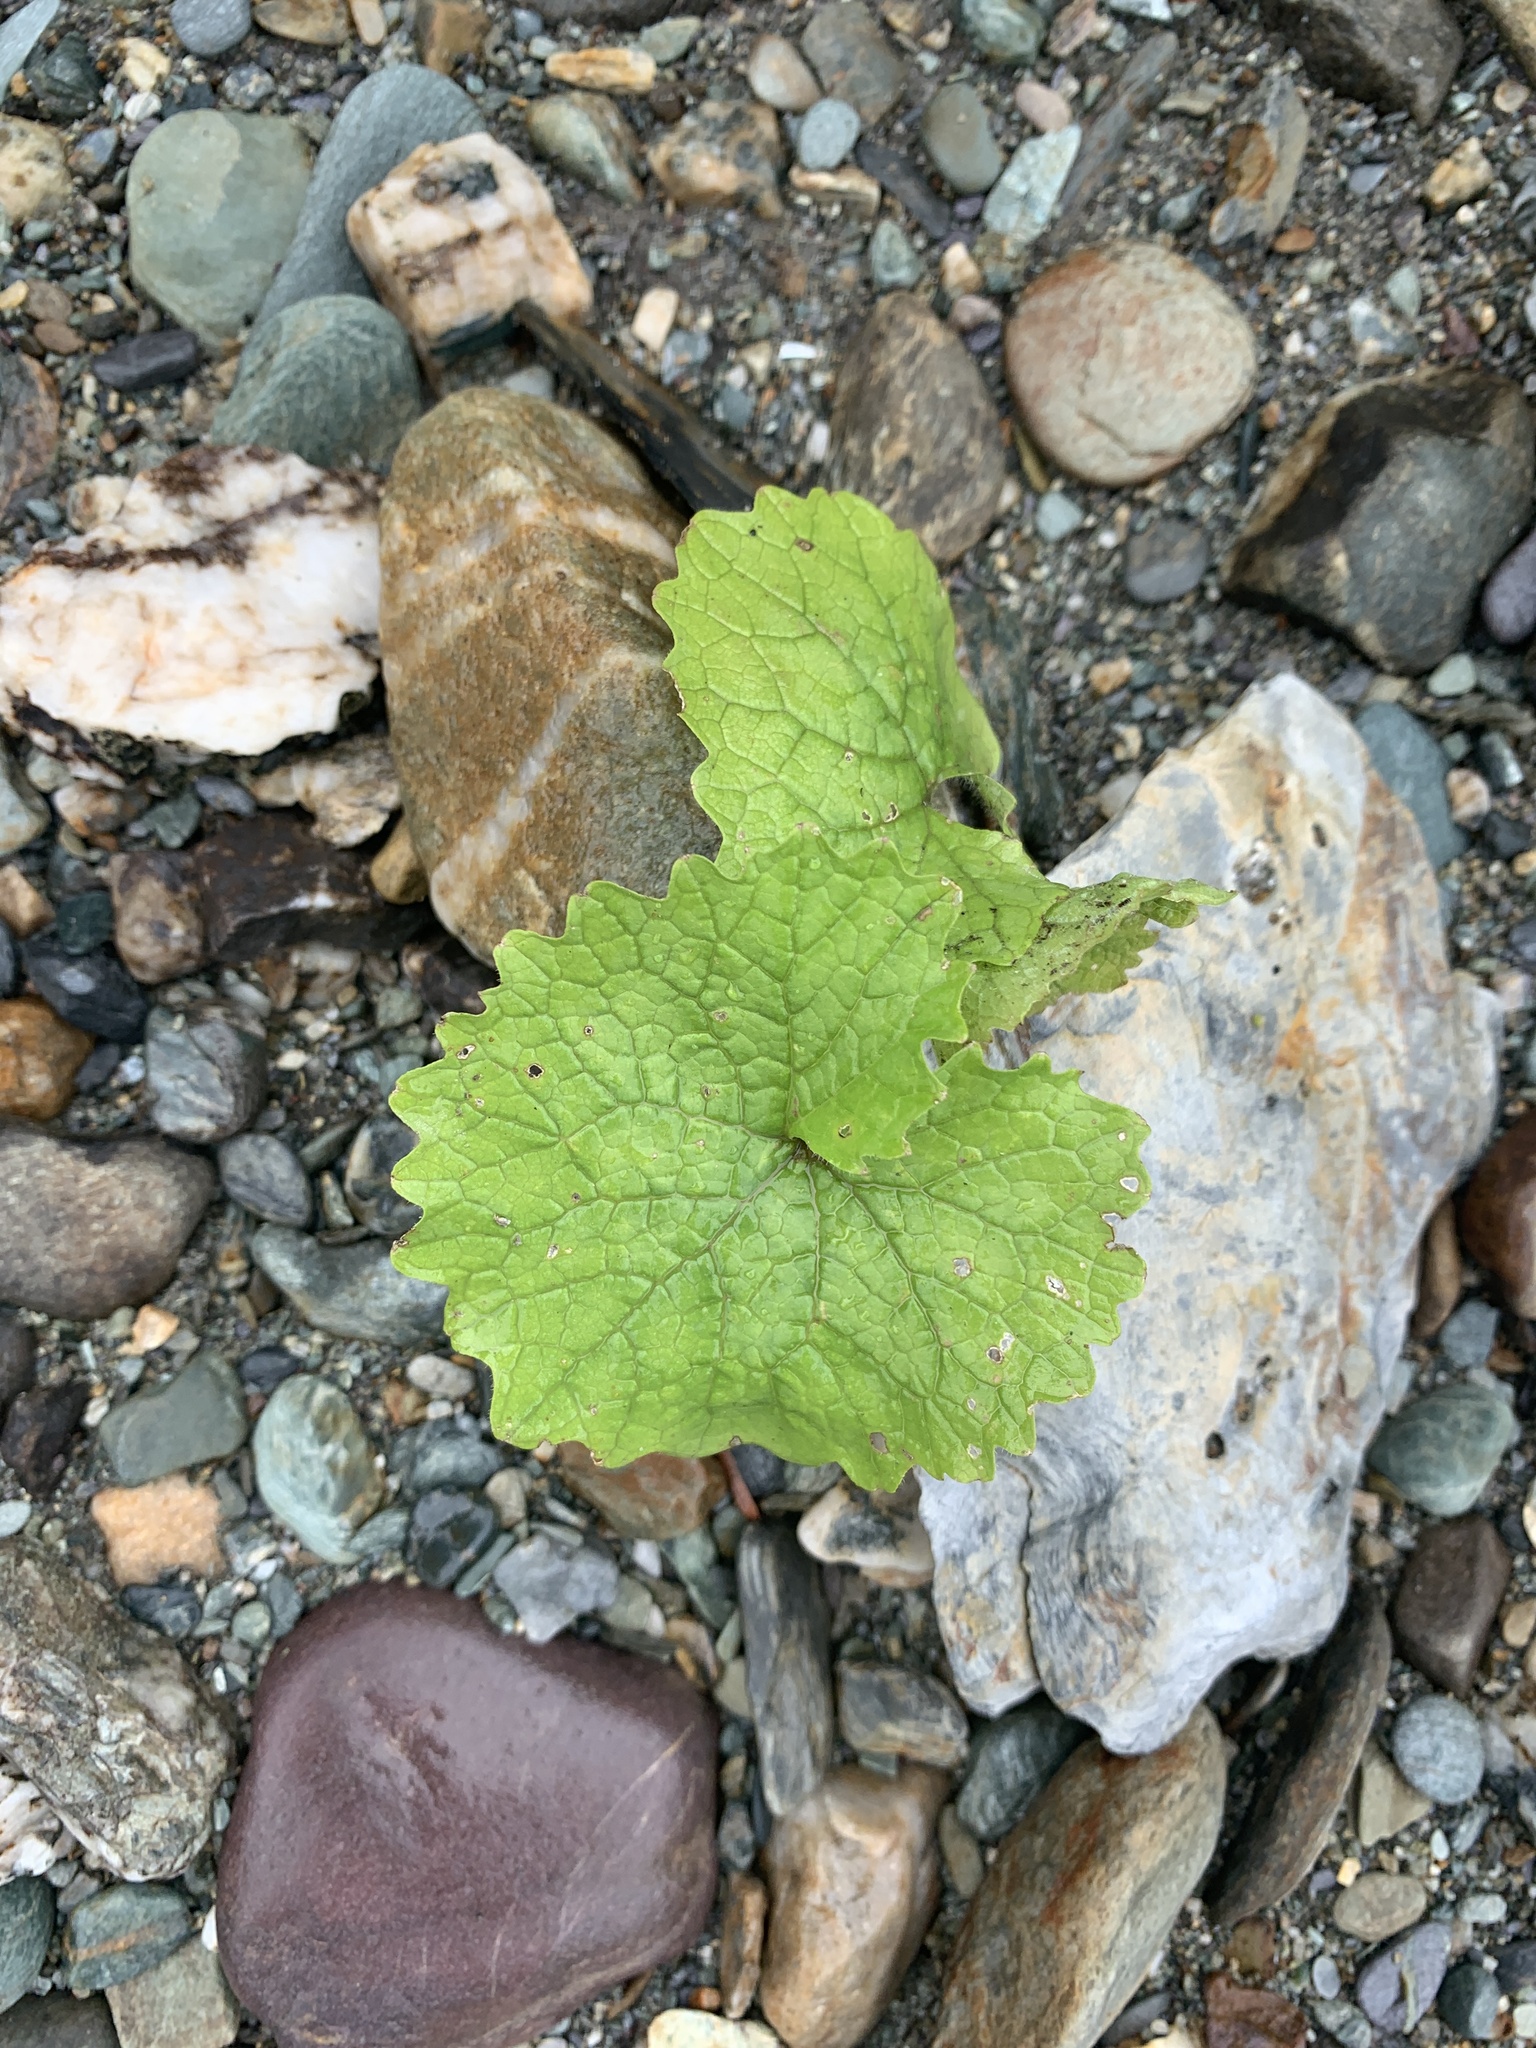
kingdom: Plantae
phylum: Tracheophyta
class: Magnoliopsida
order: Brassicales
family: Brassicaceae
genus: Alliaria
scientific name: Alliaria petiolata
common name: Garlic mustard
